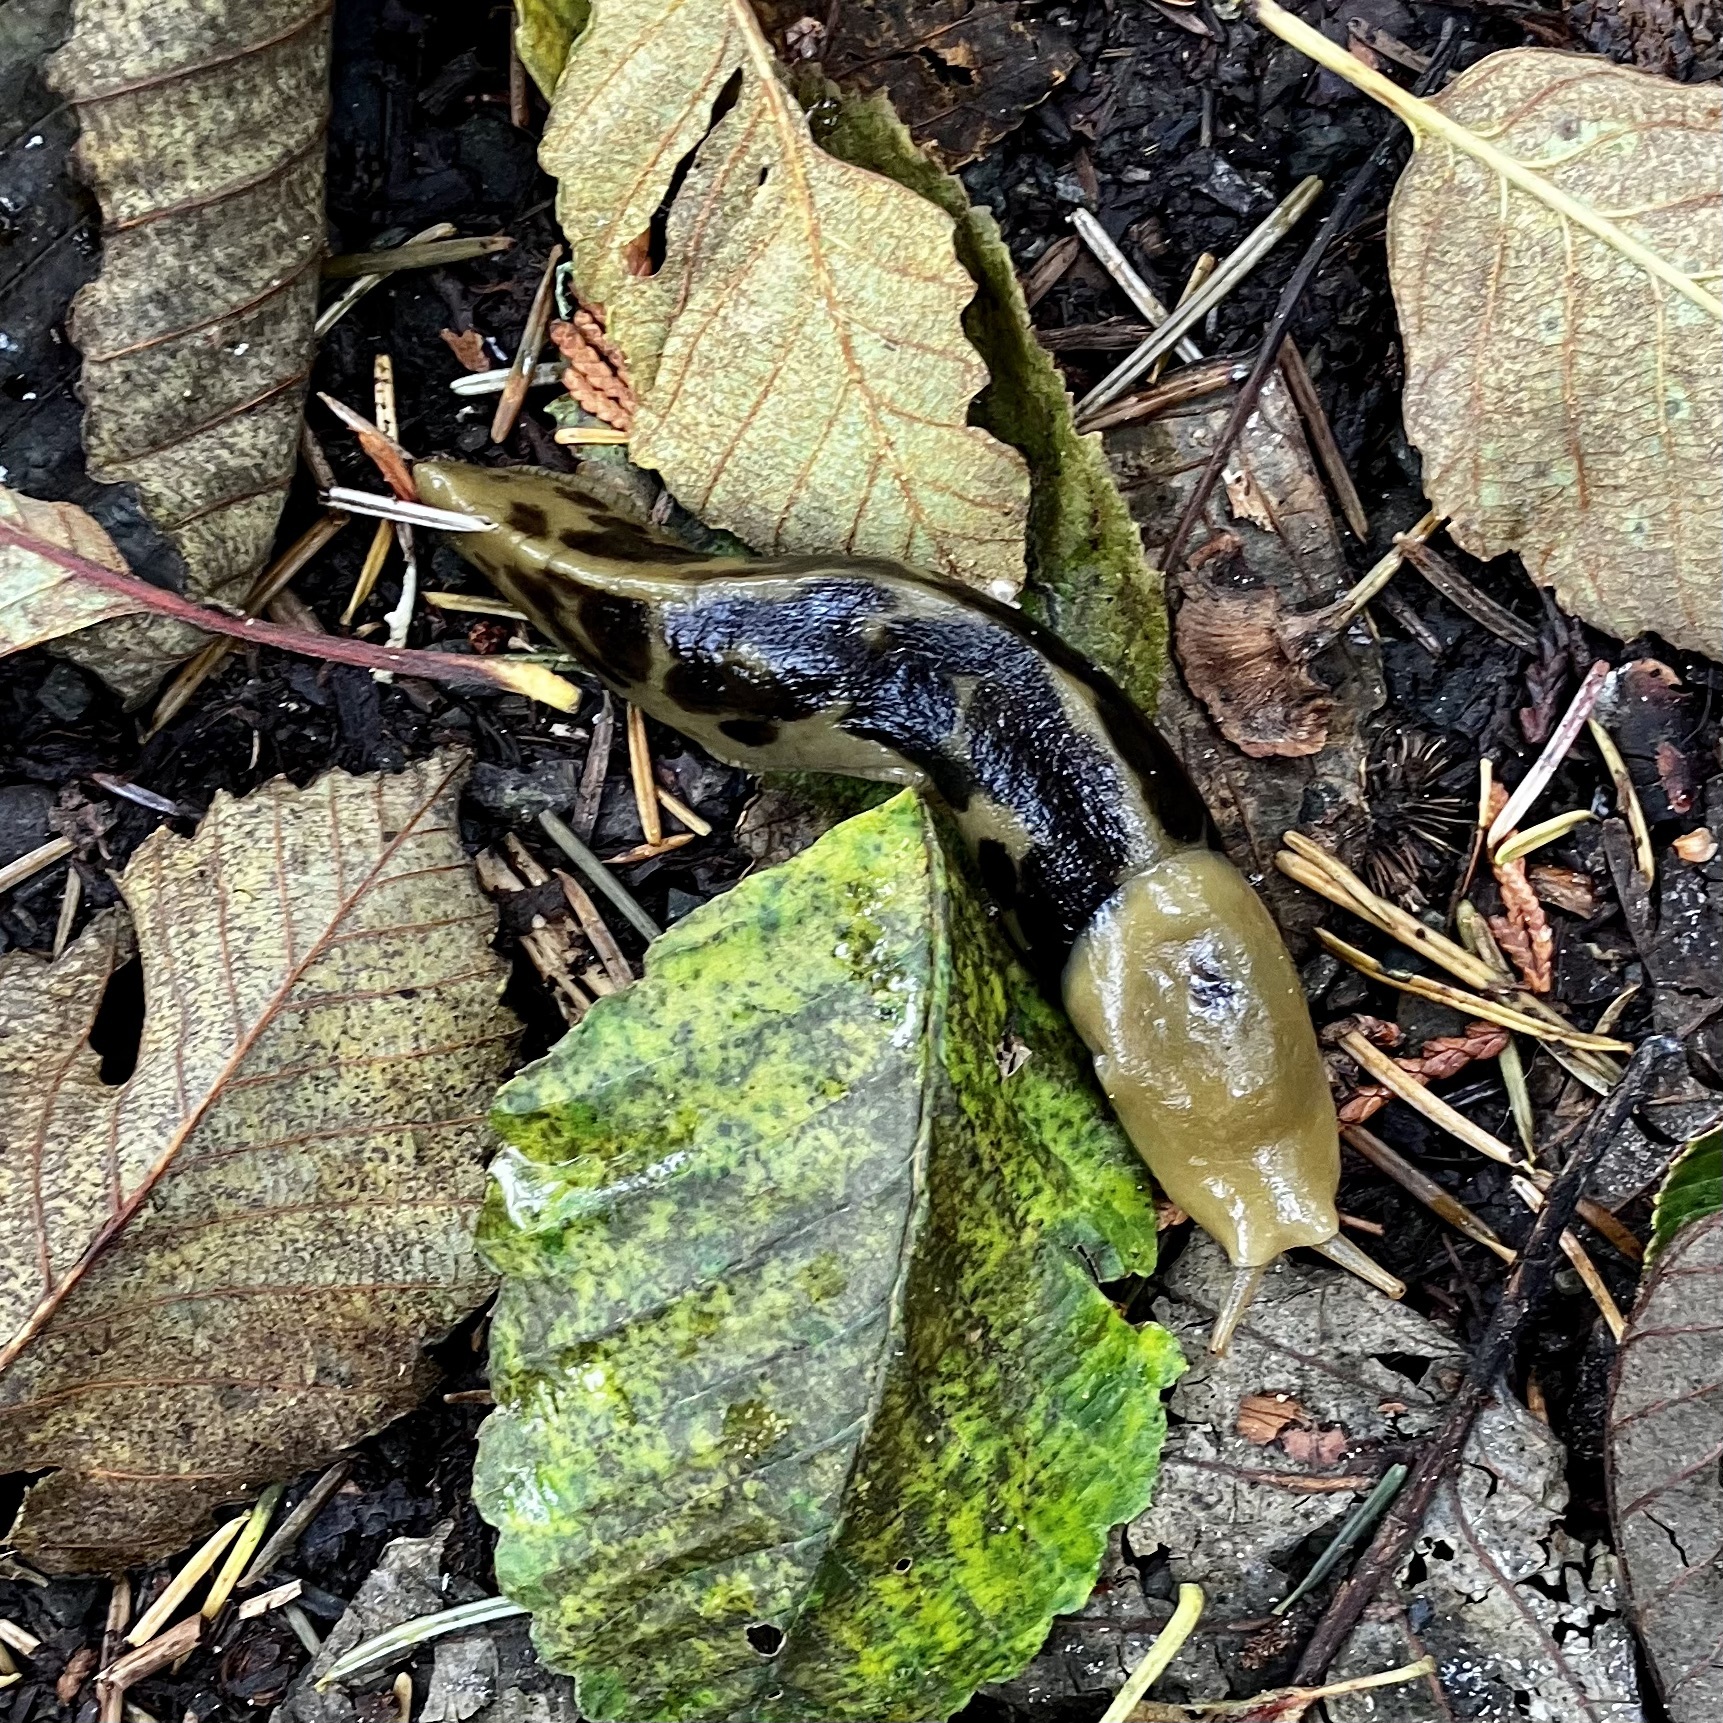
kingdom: Animalia
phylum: Mollusca
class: Gastropoda
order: Stylommatophora
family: Ariolimacidae
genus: Ariolimax
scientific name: Ariolimax columbianus
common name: Pacific banana slug
